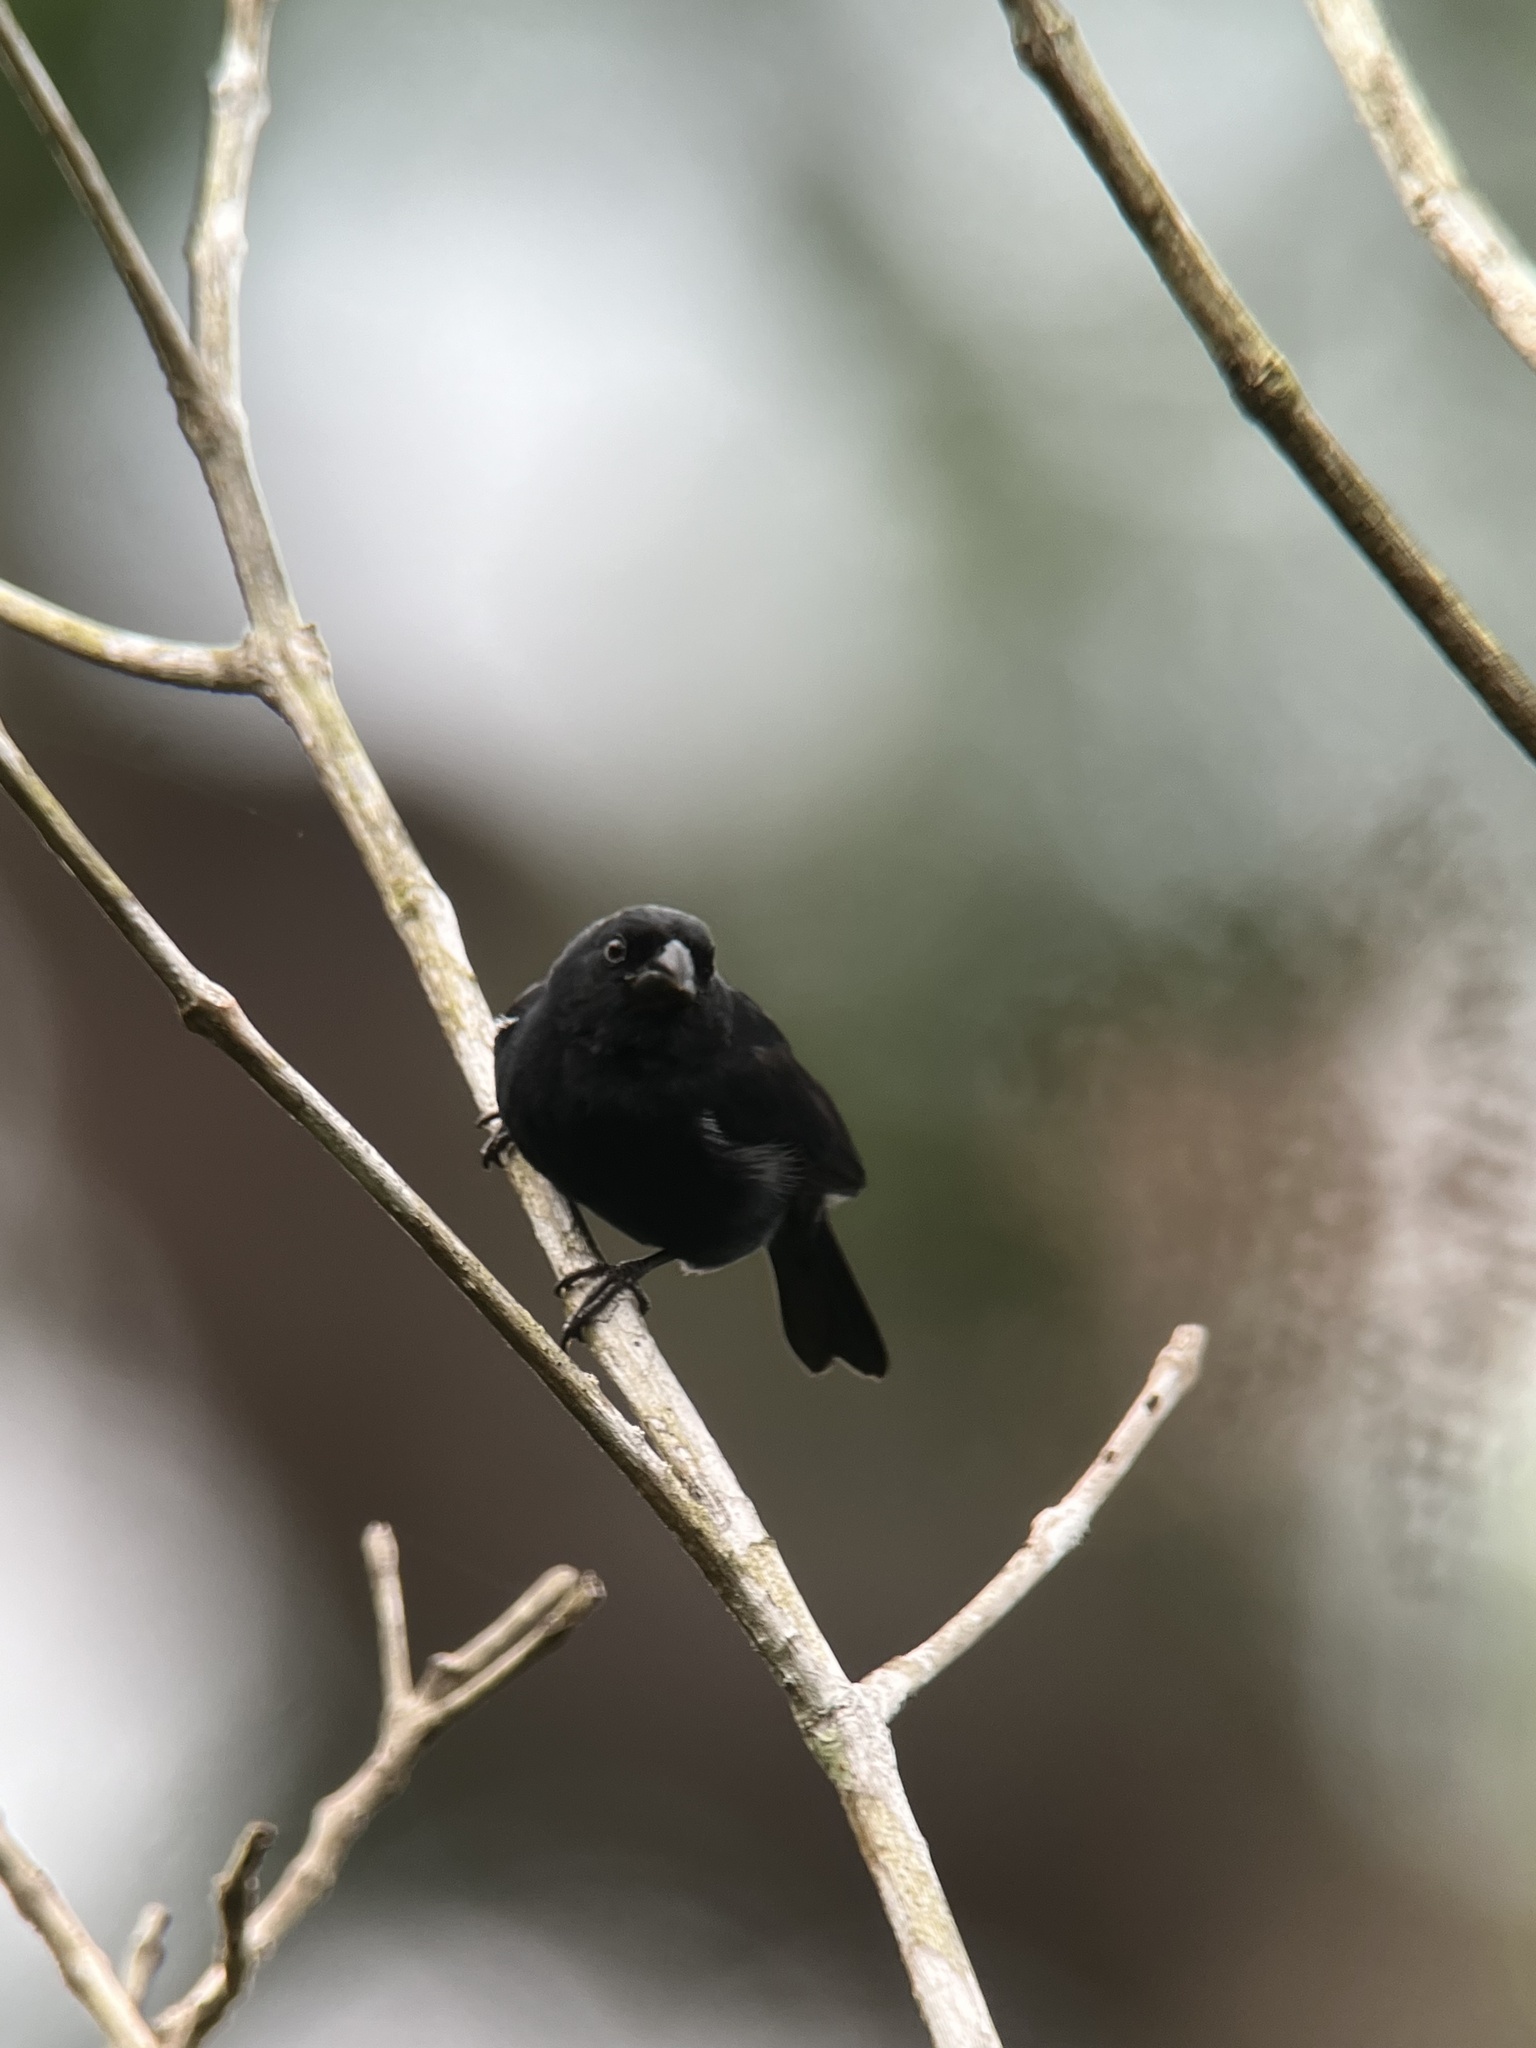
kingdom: Animalia
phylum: Chordata
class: Aves
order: Passeriformes
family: Thraupidae
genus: Sporophila
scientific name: Sporophila corvina
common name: Variable seedeater
